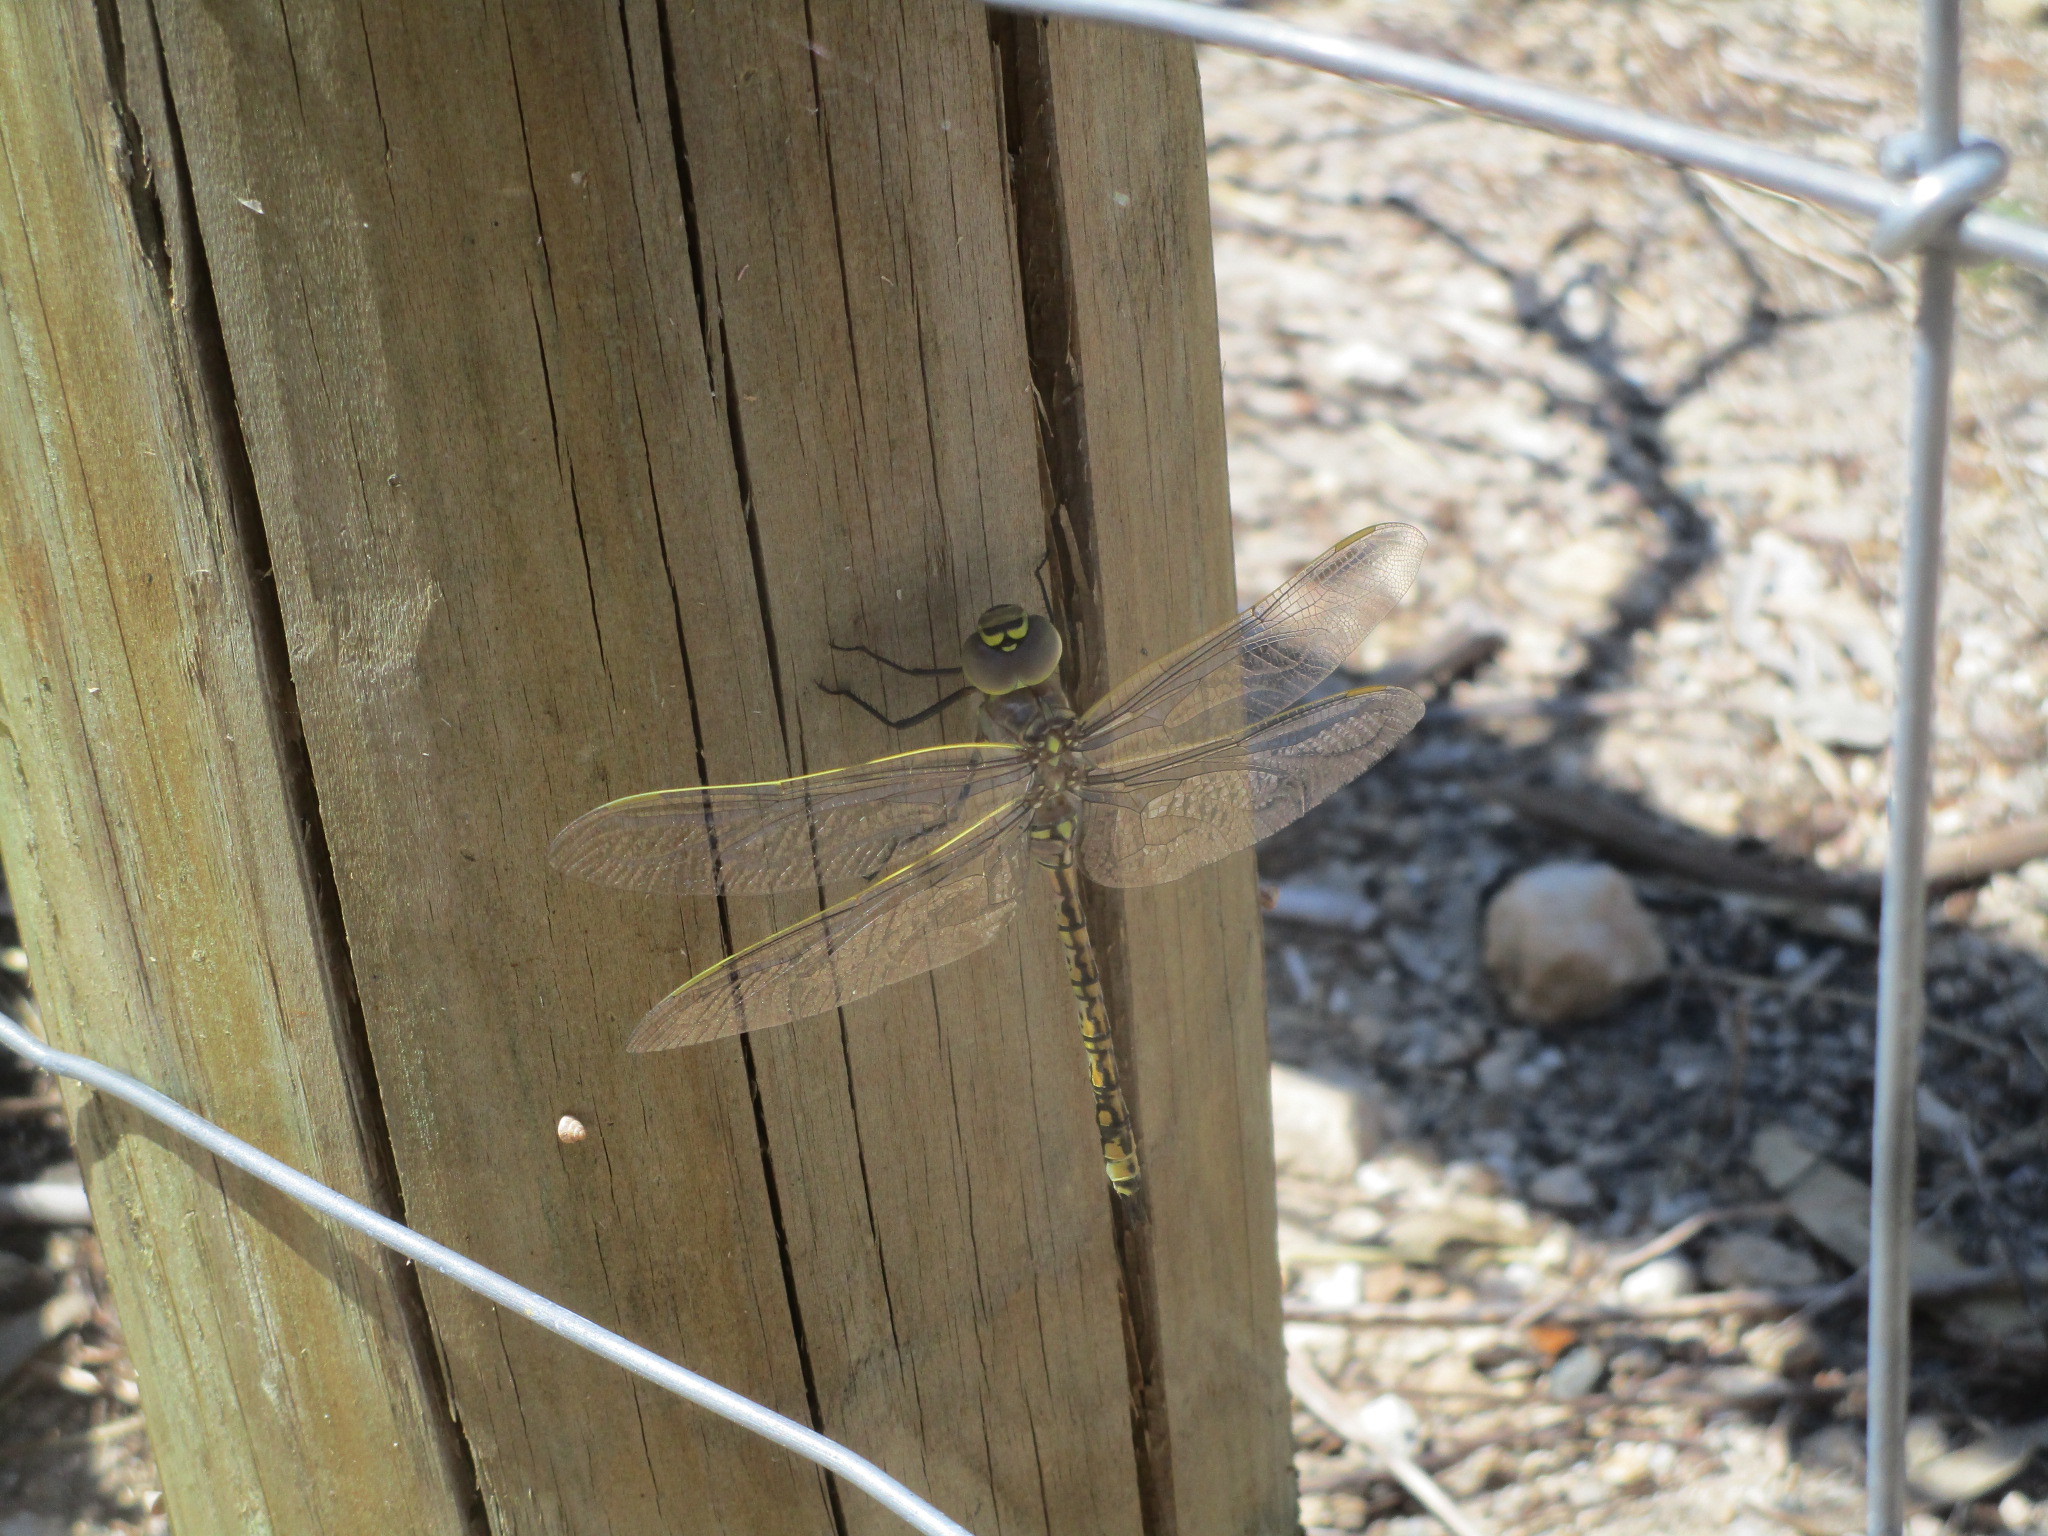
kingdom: Animalia
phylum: Arthropoda
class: Insecta
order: Odonata
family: Aeshnidae
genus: Anax
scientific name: Anax papuensis
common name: Australian emperor
